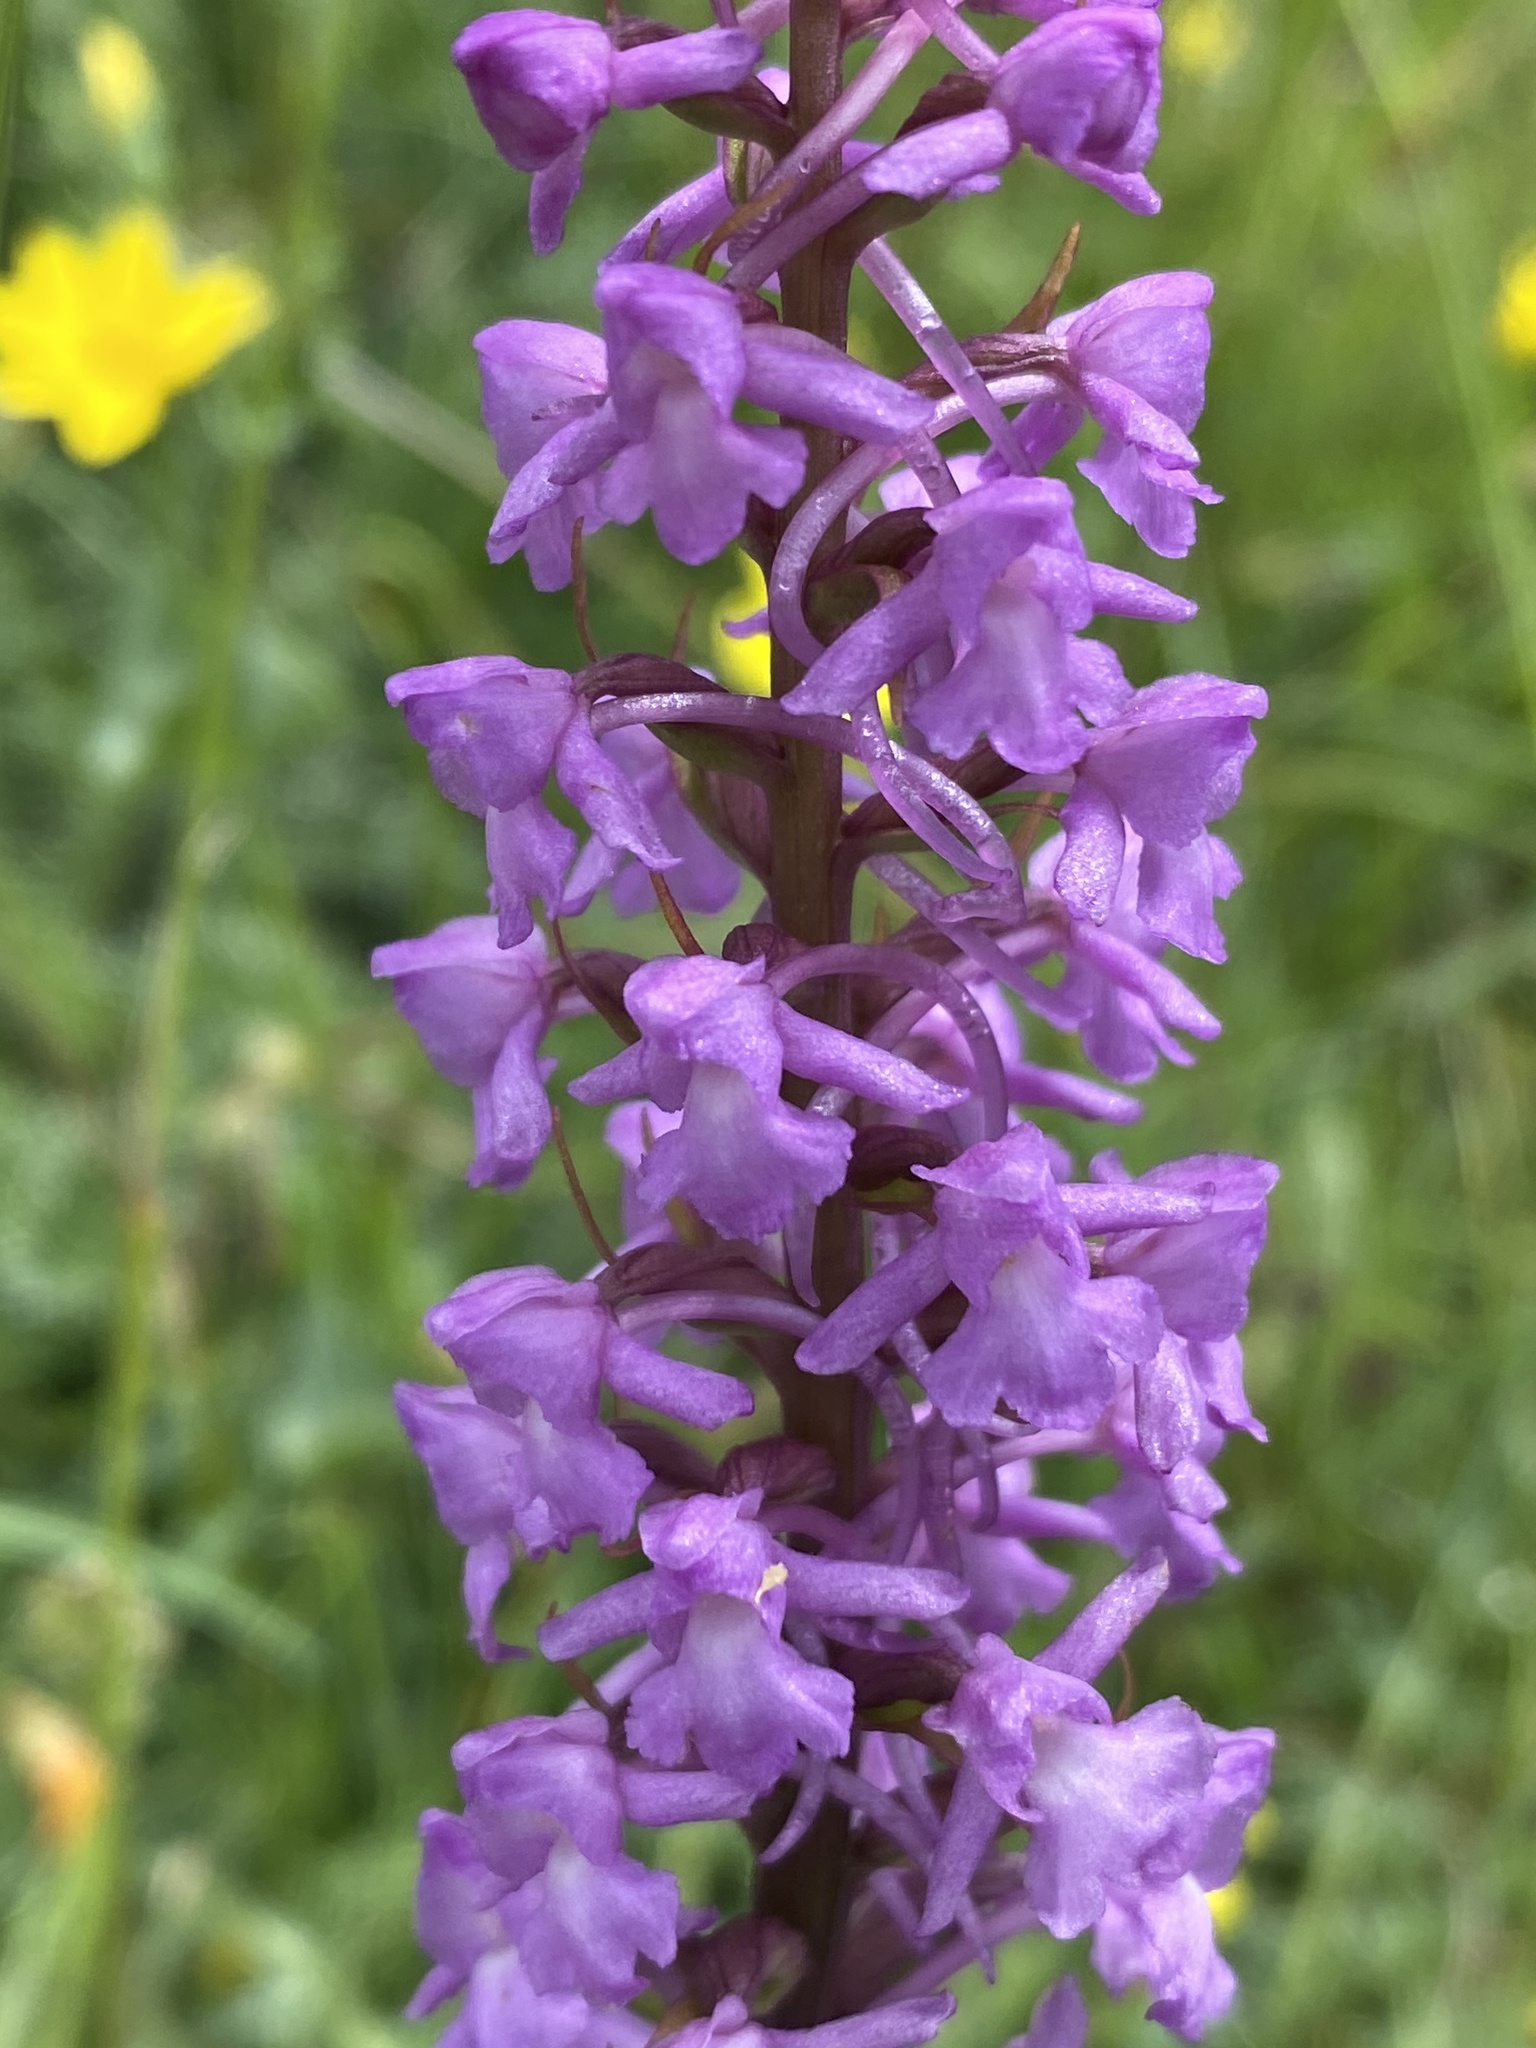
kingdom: Plantae
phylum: Tracheophyta
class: Liliopsida
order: Asparagales
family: Orchidaceae
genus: Gymnadenia
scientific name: Gymnadenia conopsea
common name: Fragrant orchid
